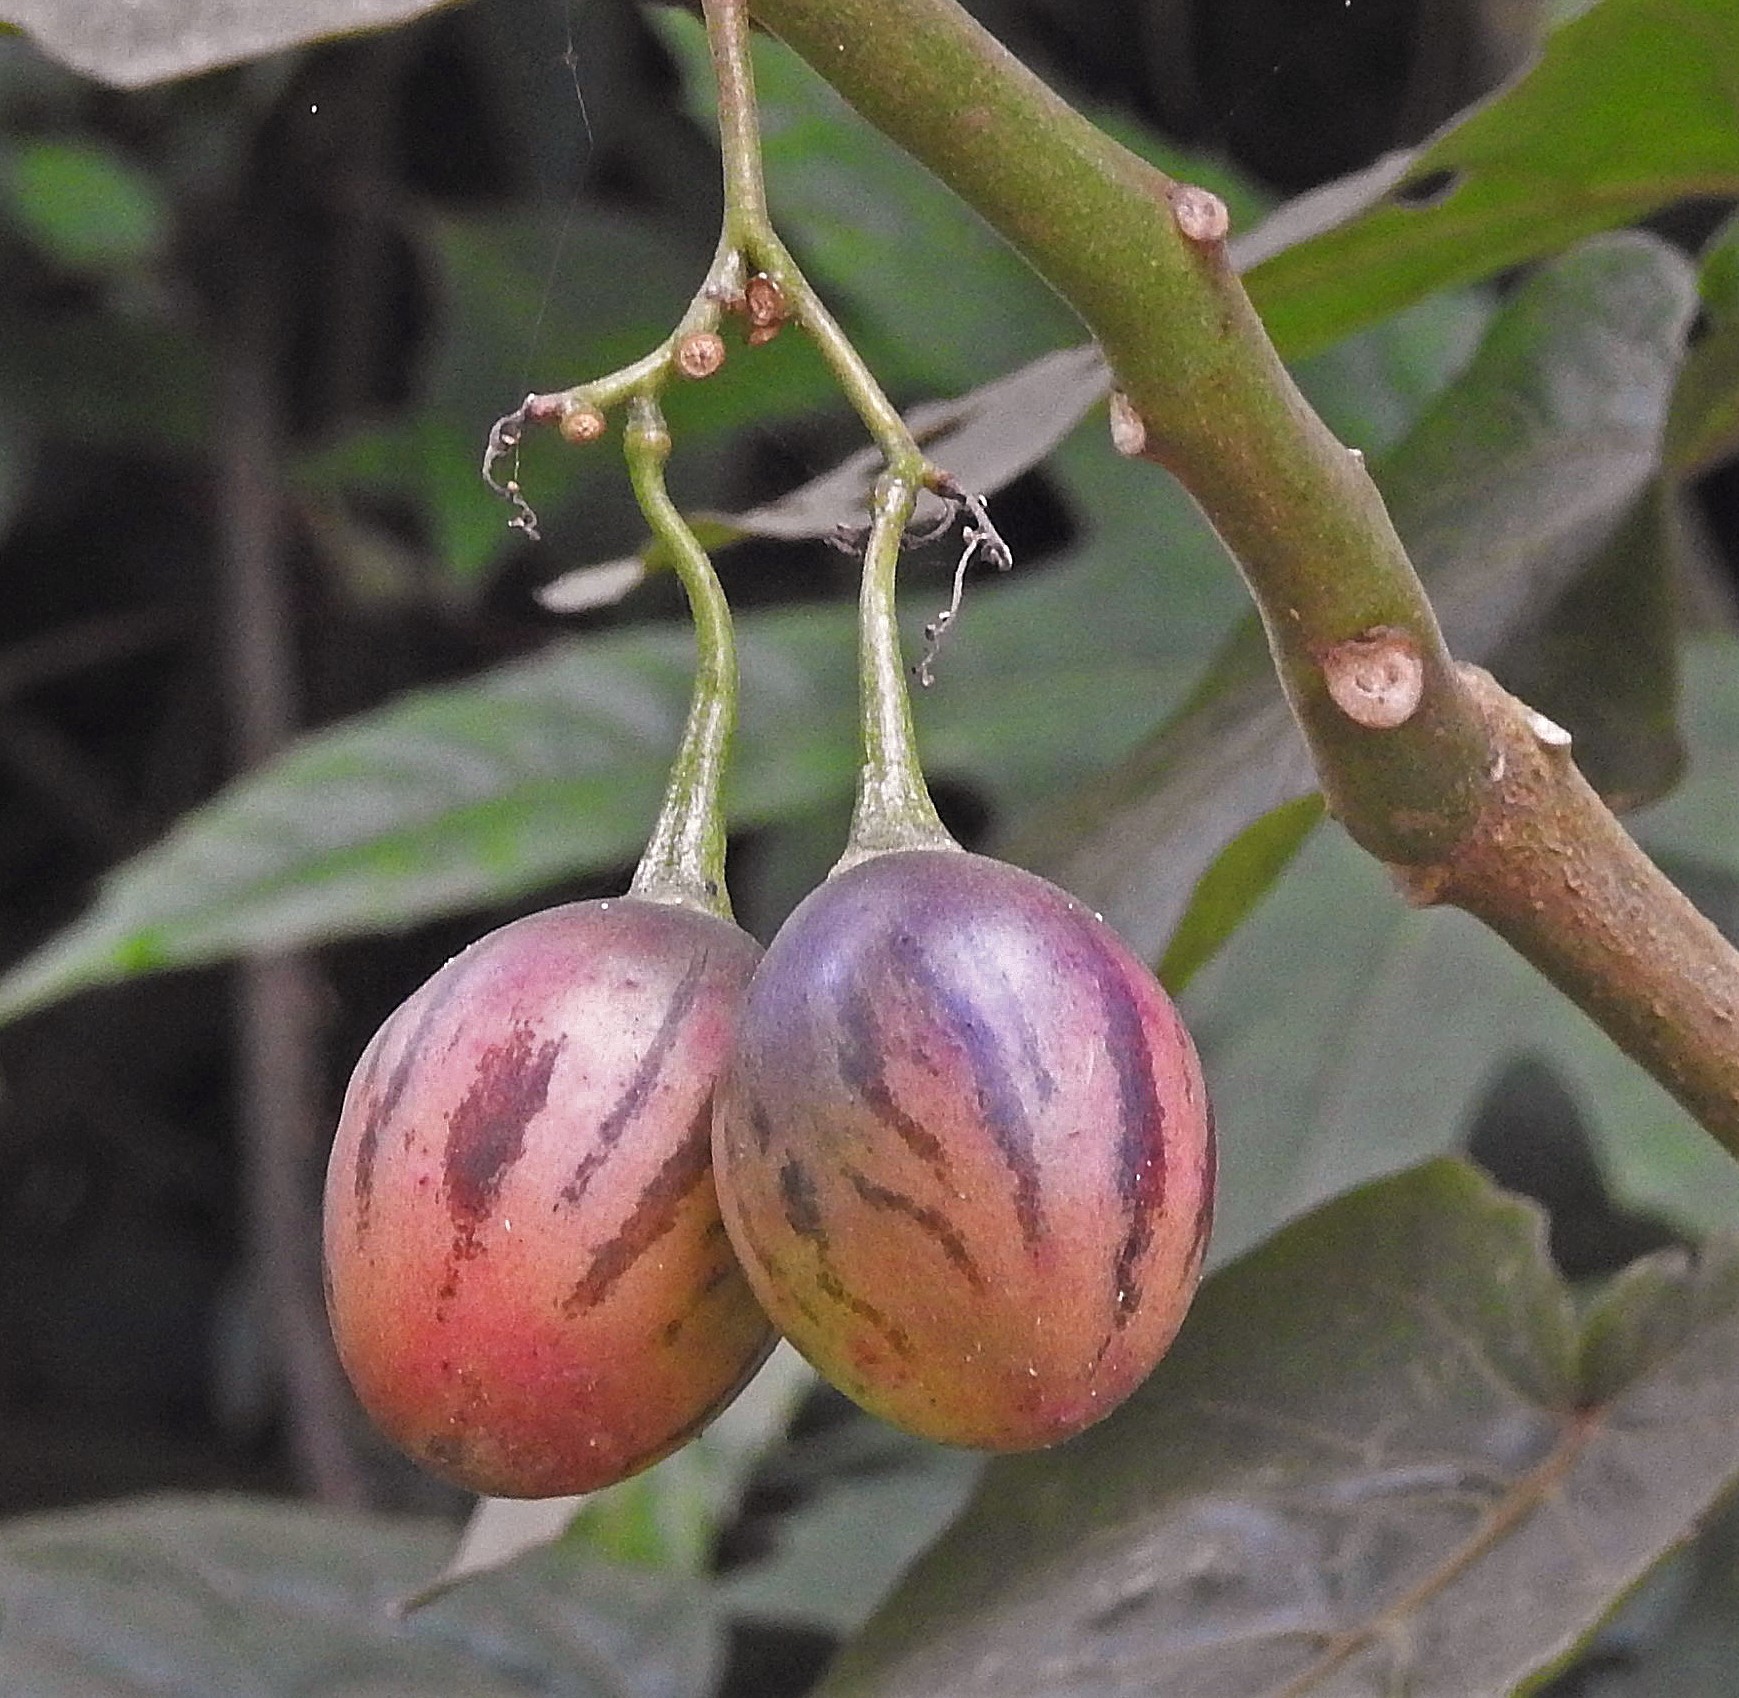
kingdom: Plantae
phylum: Tracheophyta
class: Magnoliopsida
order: Solanales
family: Solanaceae
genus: Solanum
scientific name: Solanum betaceum
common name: Tamarillo
